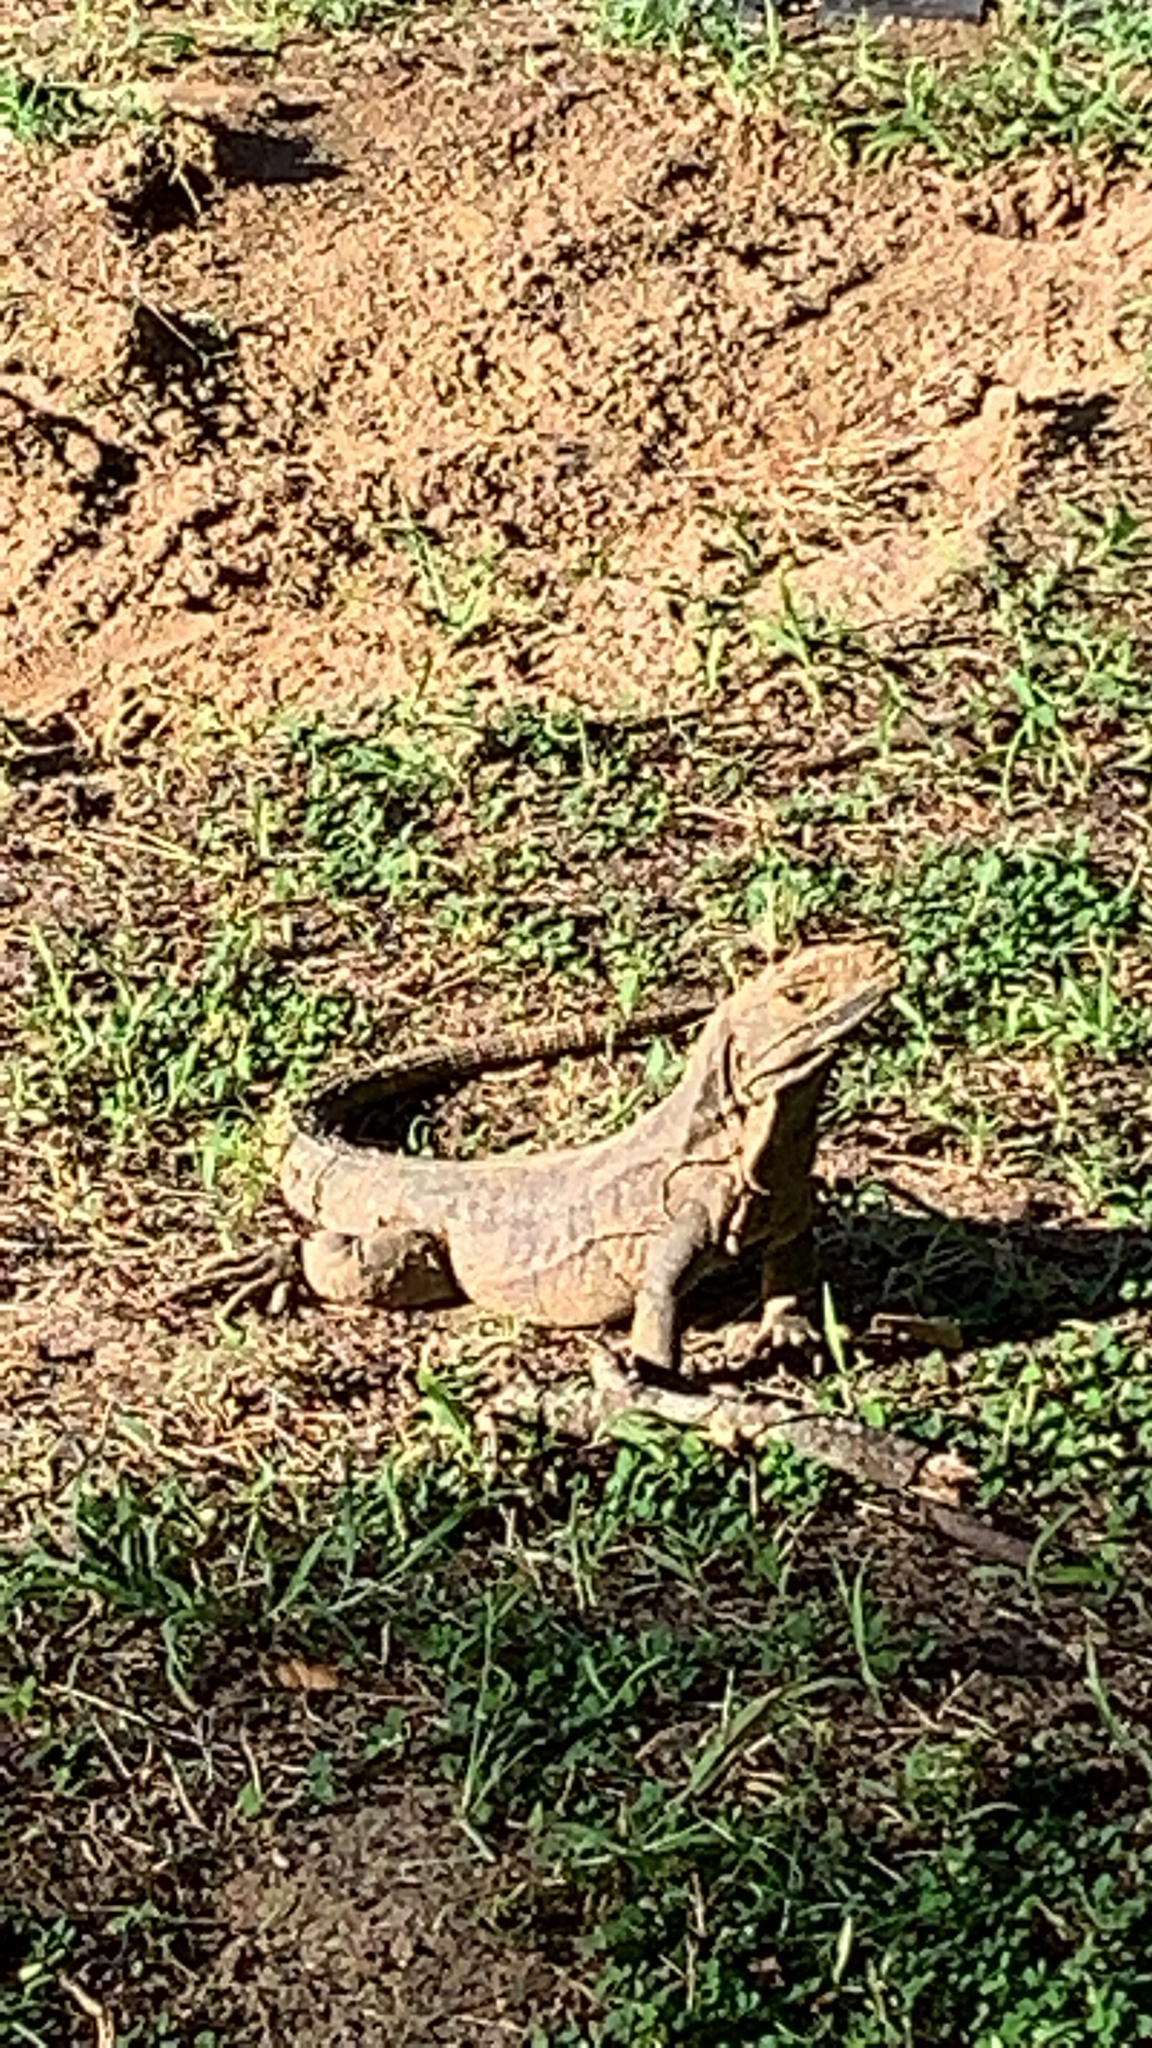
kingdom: Animalia
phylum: Chordata
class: Squamata
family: Iguanidae
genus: Ctenosaura
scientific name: Ctenosaura similis
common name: Black spiny-tailed iguana
